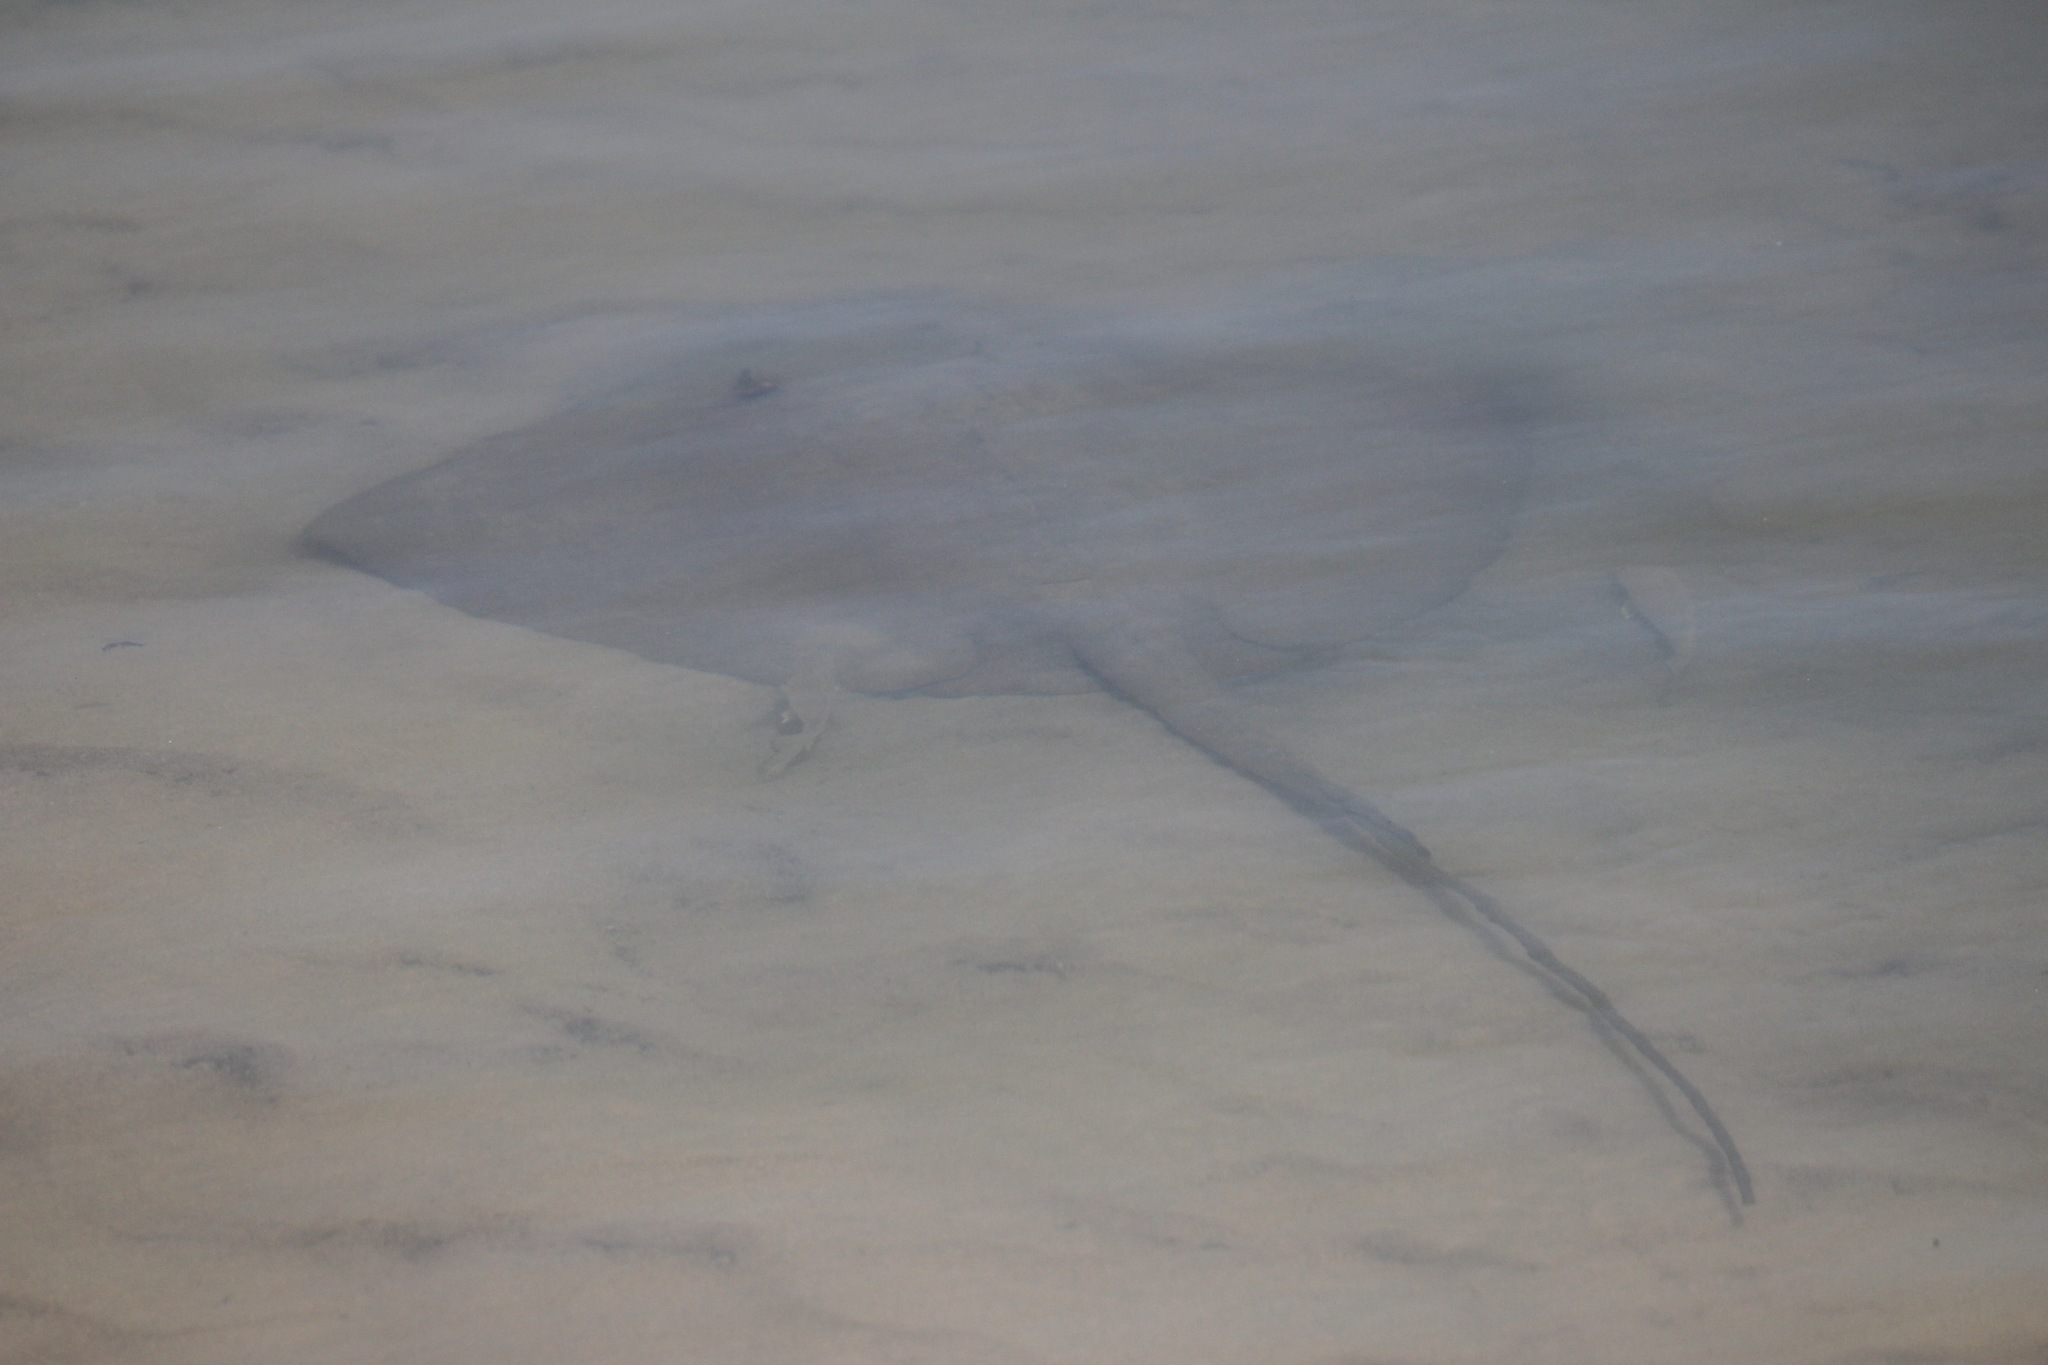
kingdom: Animalia
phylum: Chordata
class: Elasmobranchii
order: Myliobatiformes
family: Dasyatidae
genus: Hemitrygon
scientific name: Hemitrygon fluviorum
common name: Estuary stingray
